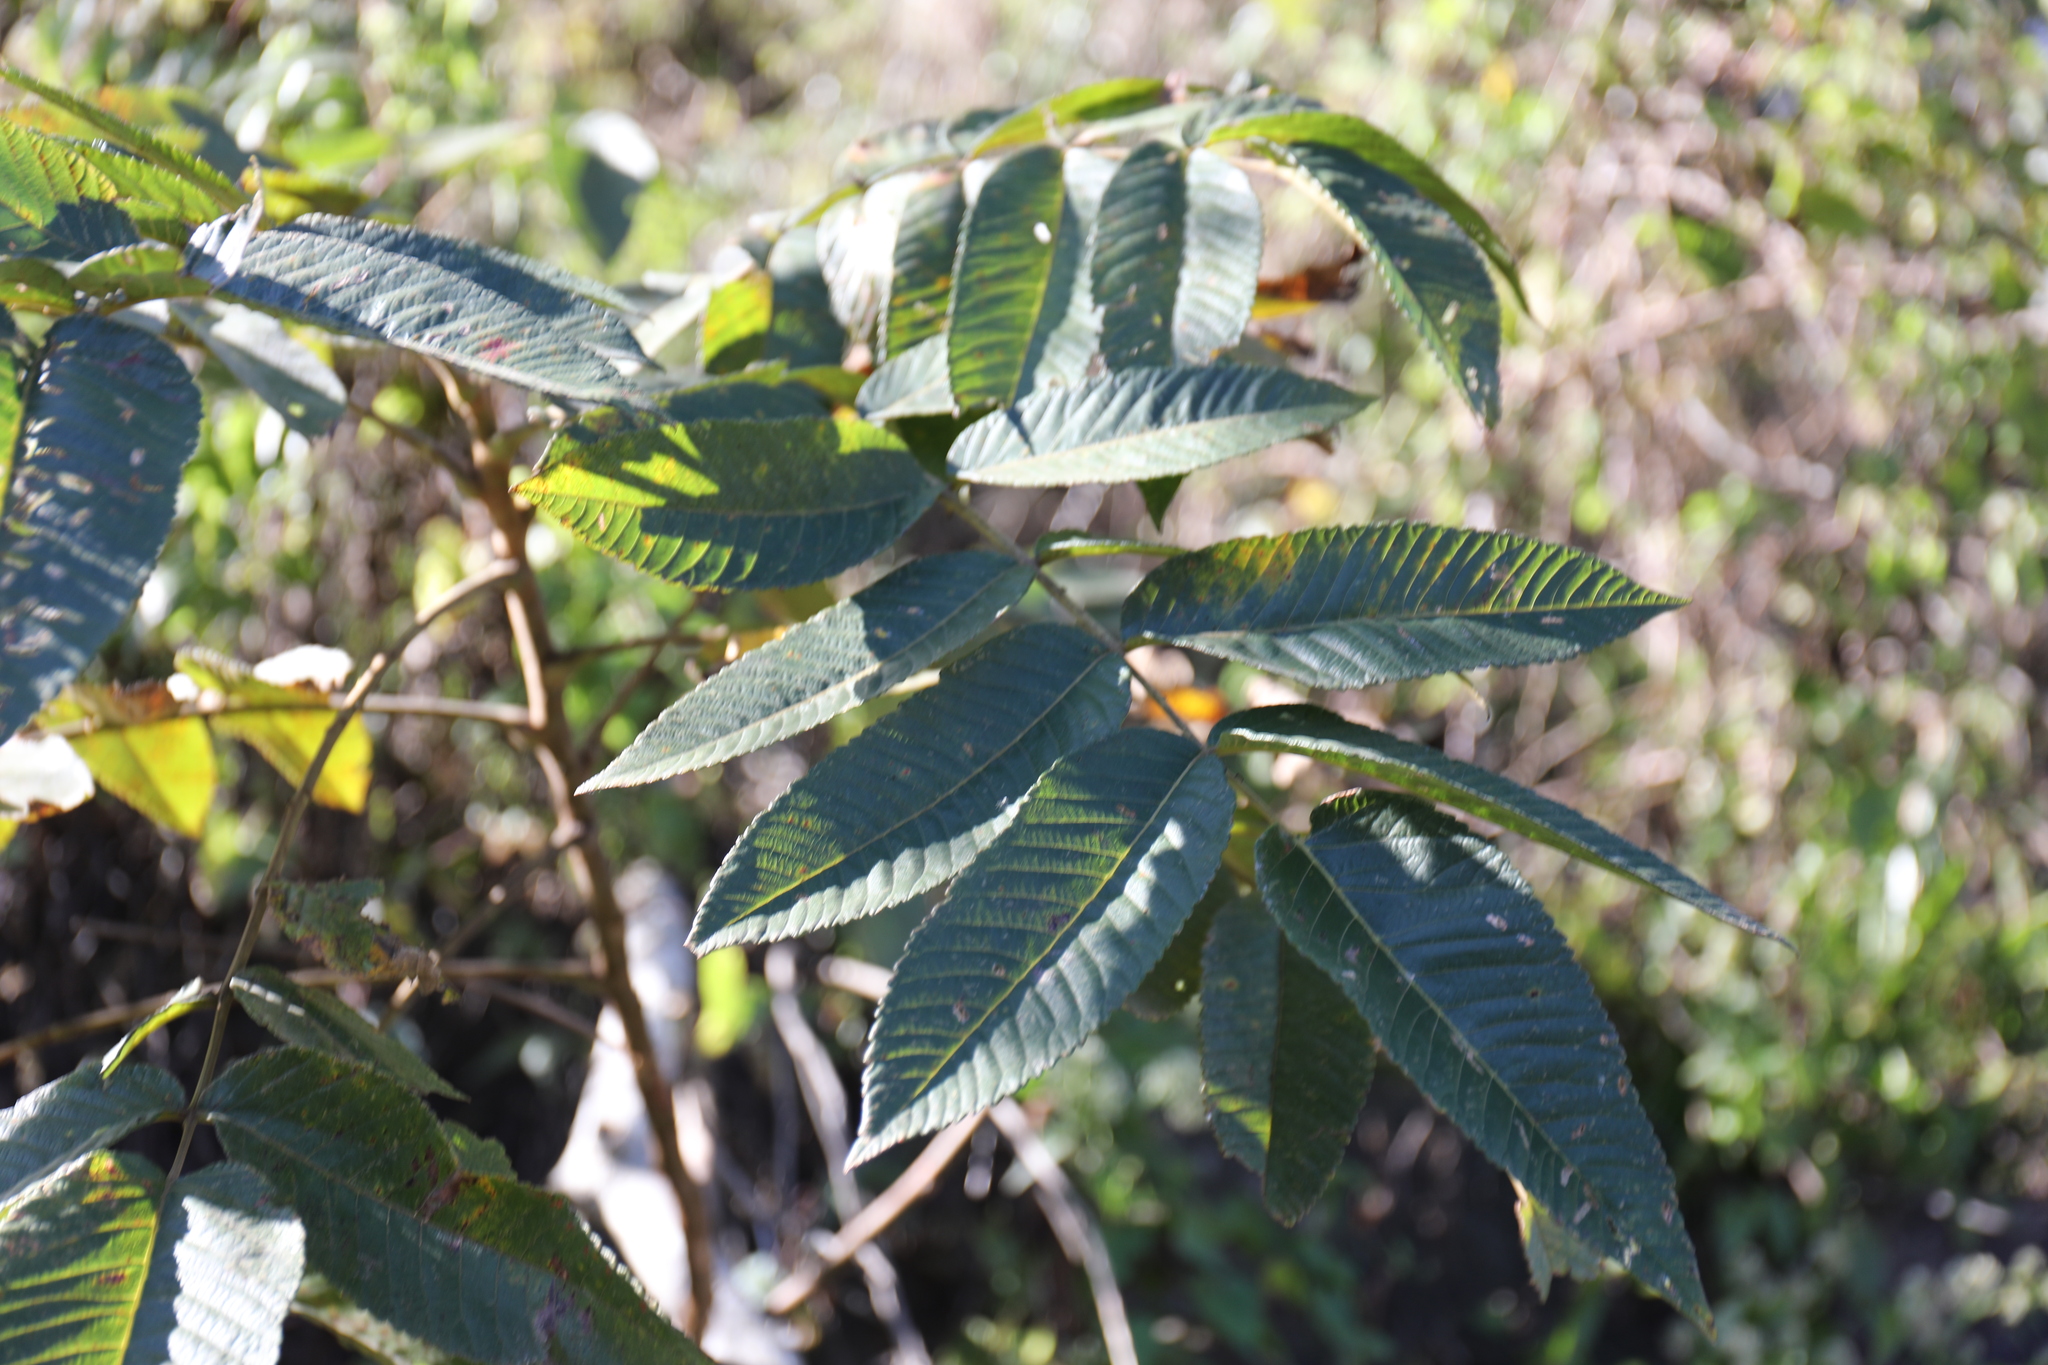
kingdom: Plantae
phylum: Tracheophyta
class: Magnoliopsida
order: Sapindales
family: Anacardiaceae
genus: Rhus
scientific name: Rhus chinensis
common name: Chinese gall
